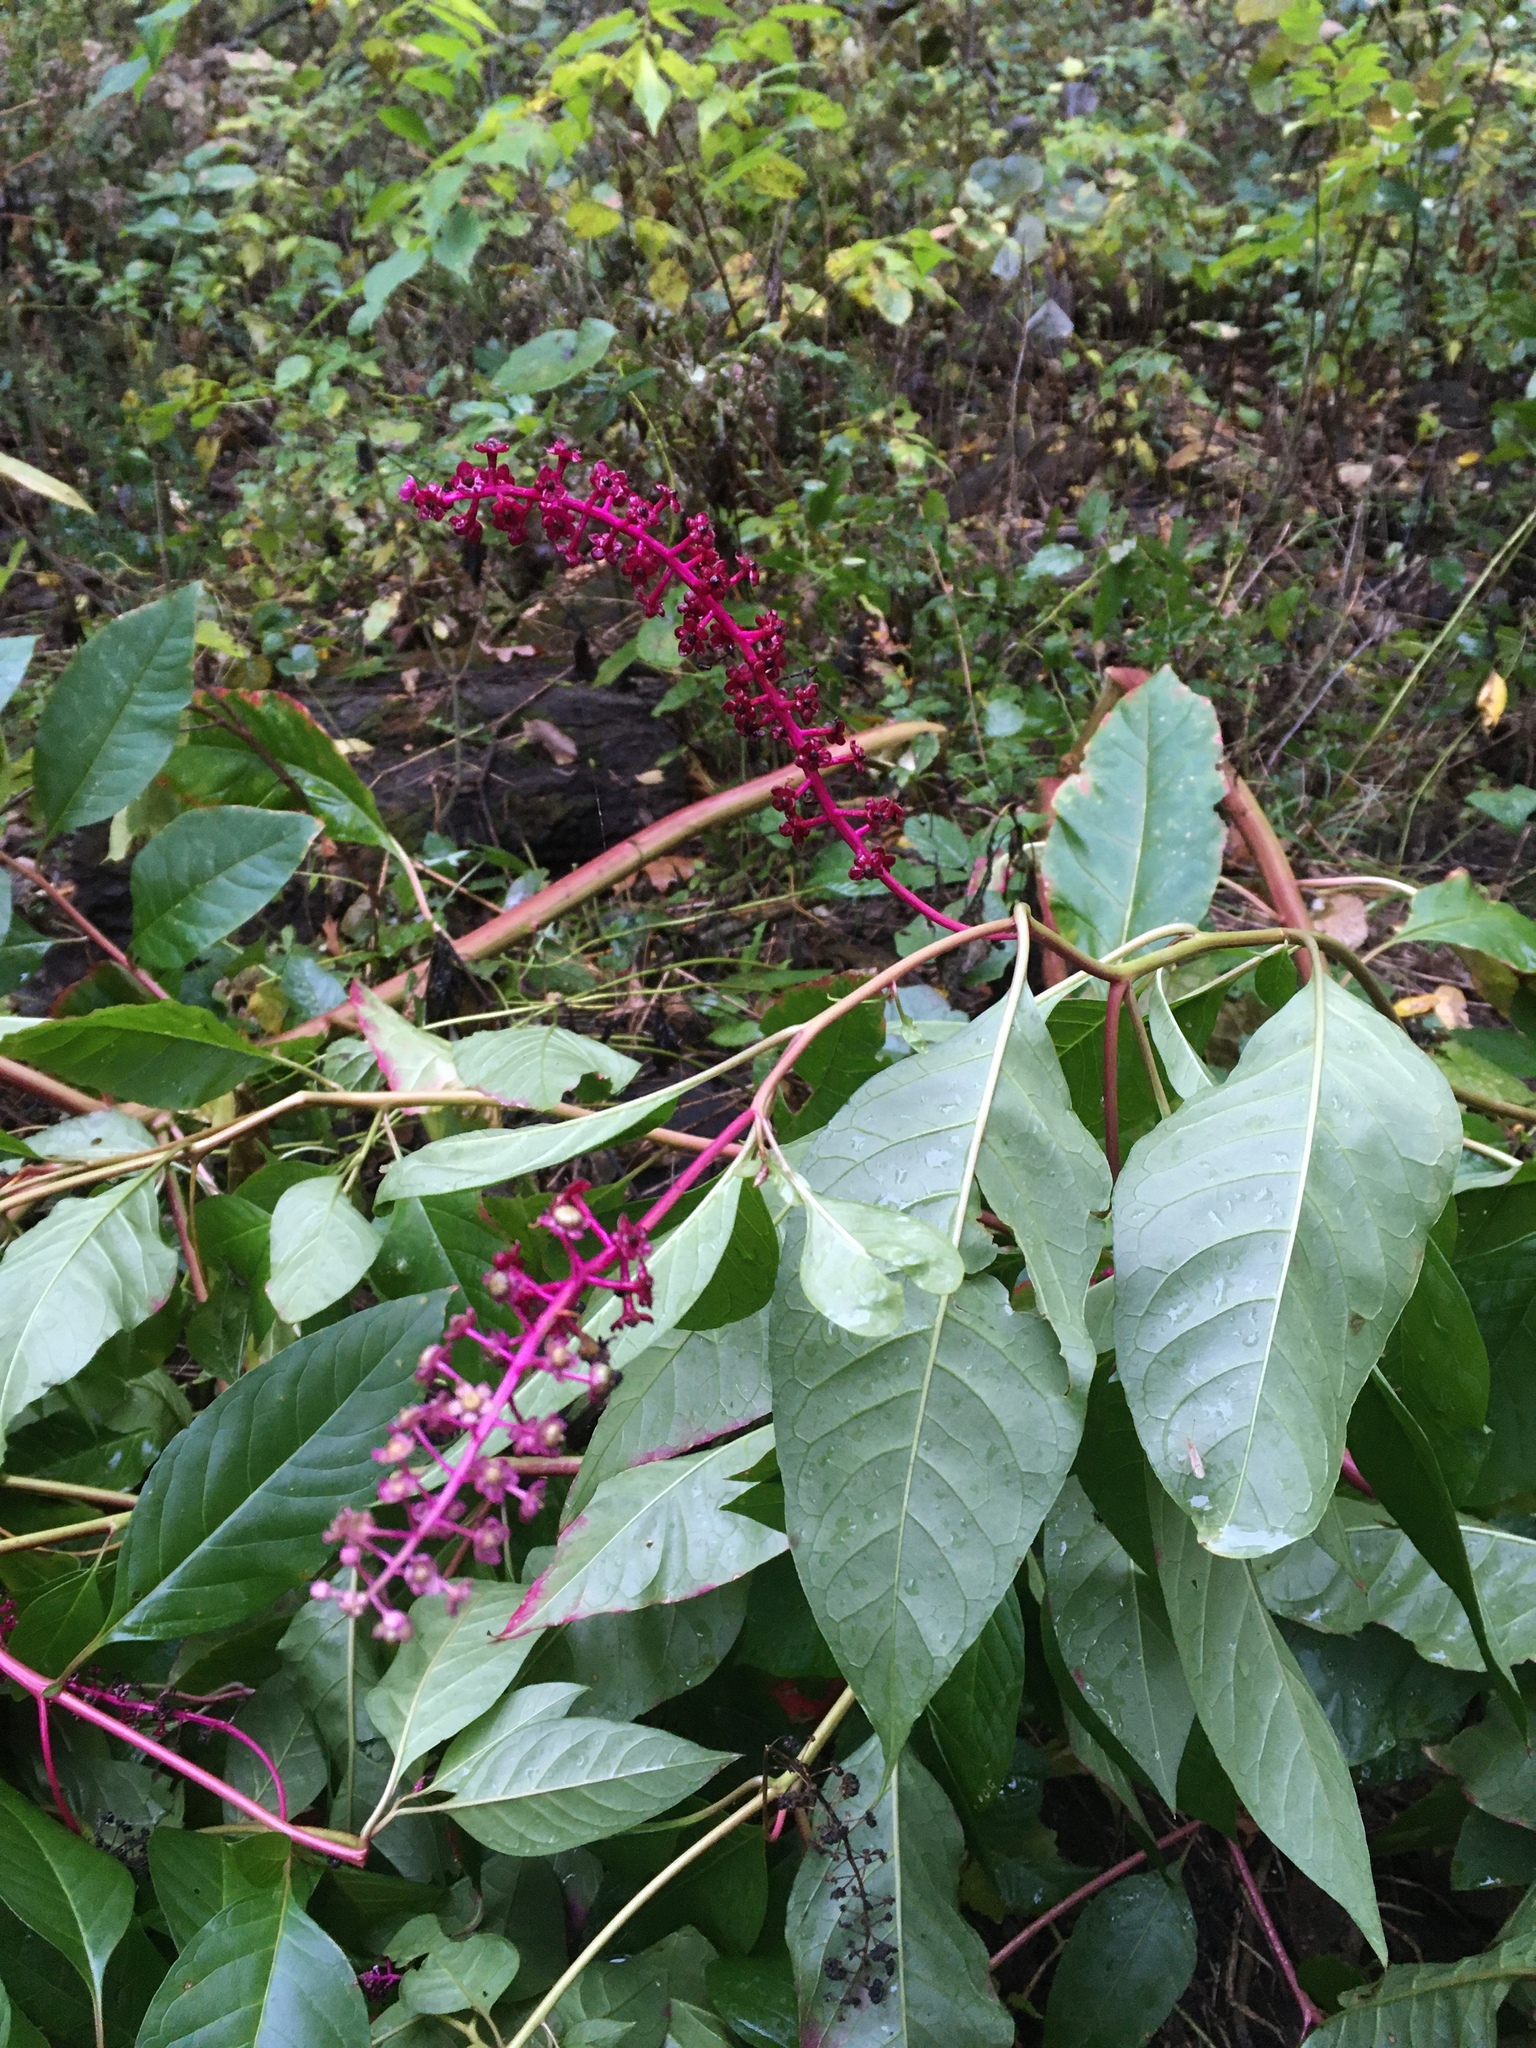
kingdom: Plantae
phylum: Tracheophyta
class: Magnoliopsida
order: Caryophyllales
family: Phytolaccaceae
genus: Phytolacca
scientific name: Phytolacca americana
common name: American pokeweed
